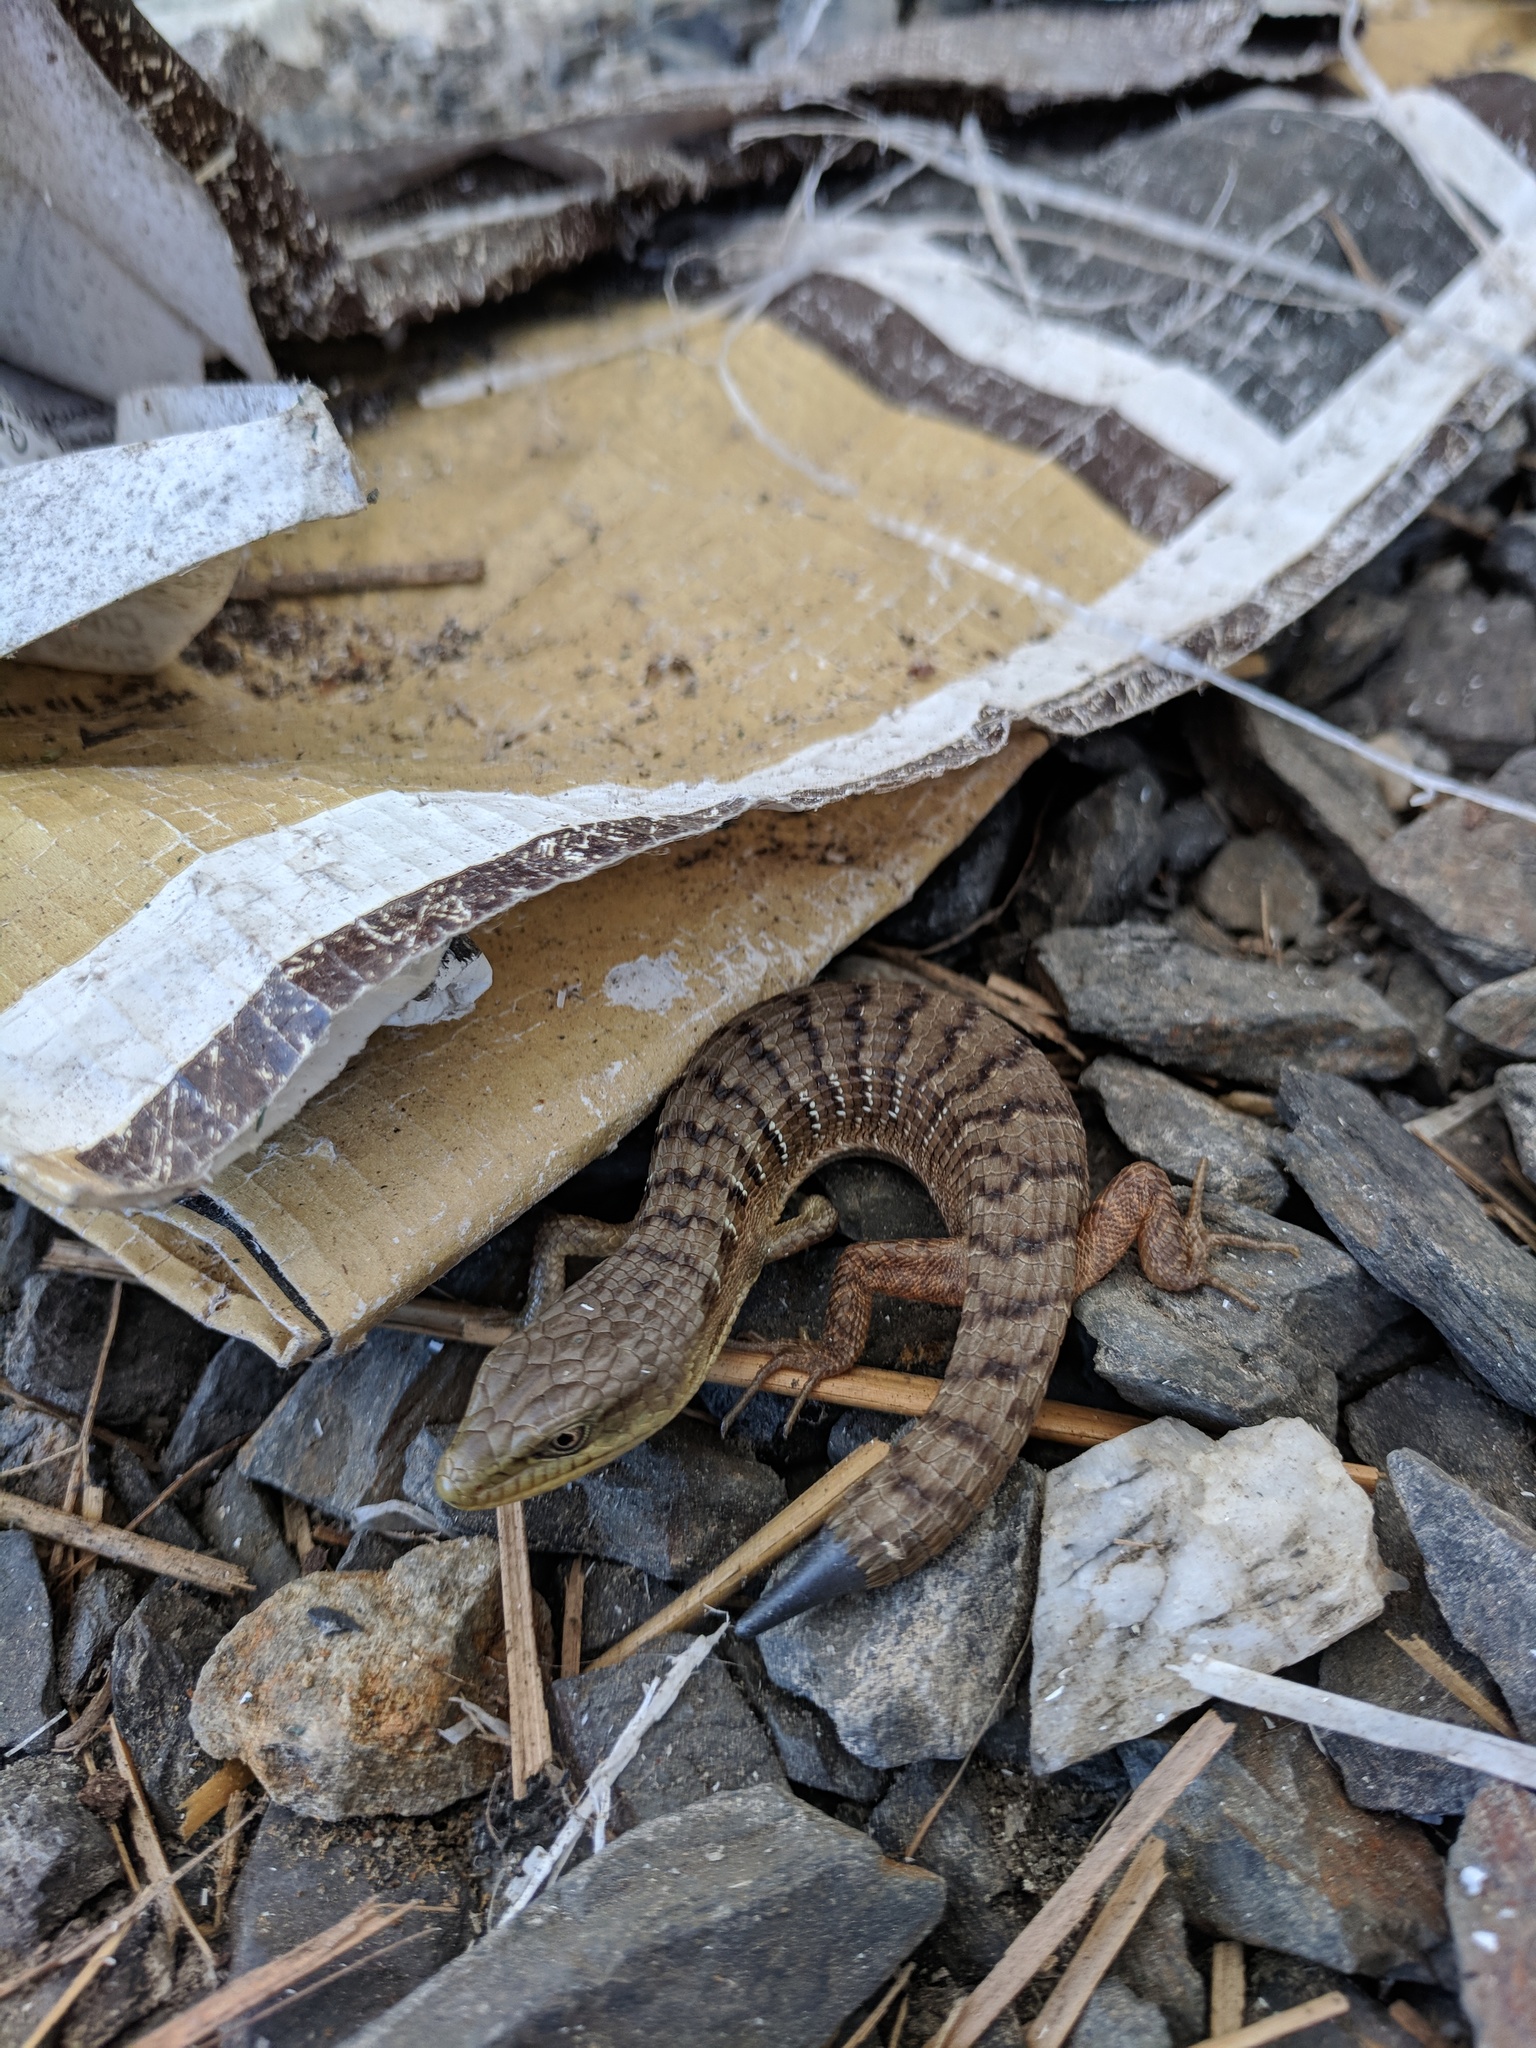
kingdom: Animalia
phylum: Chordata
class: Squamata
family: Anguidae
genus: Elgaria
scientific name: Elgaria multicarinata
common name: Southern alligator lizard
